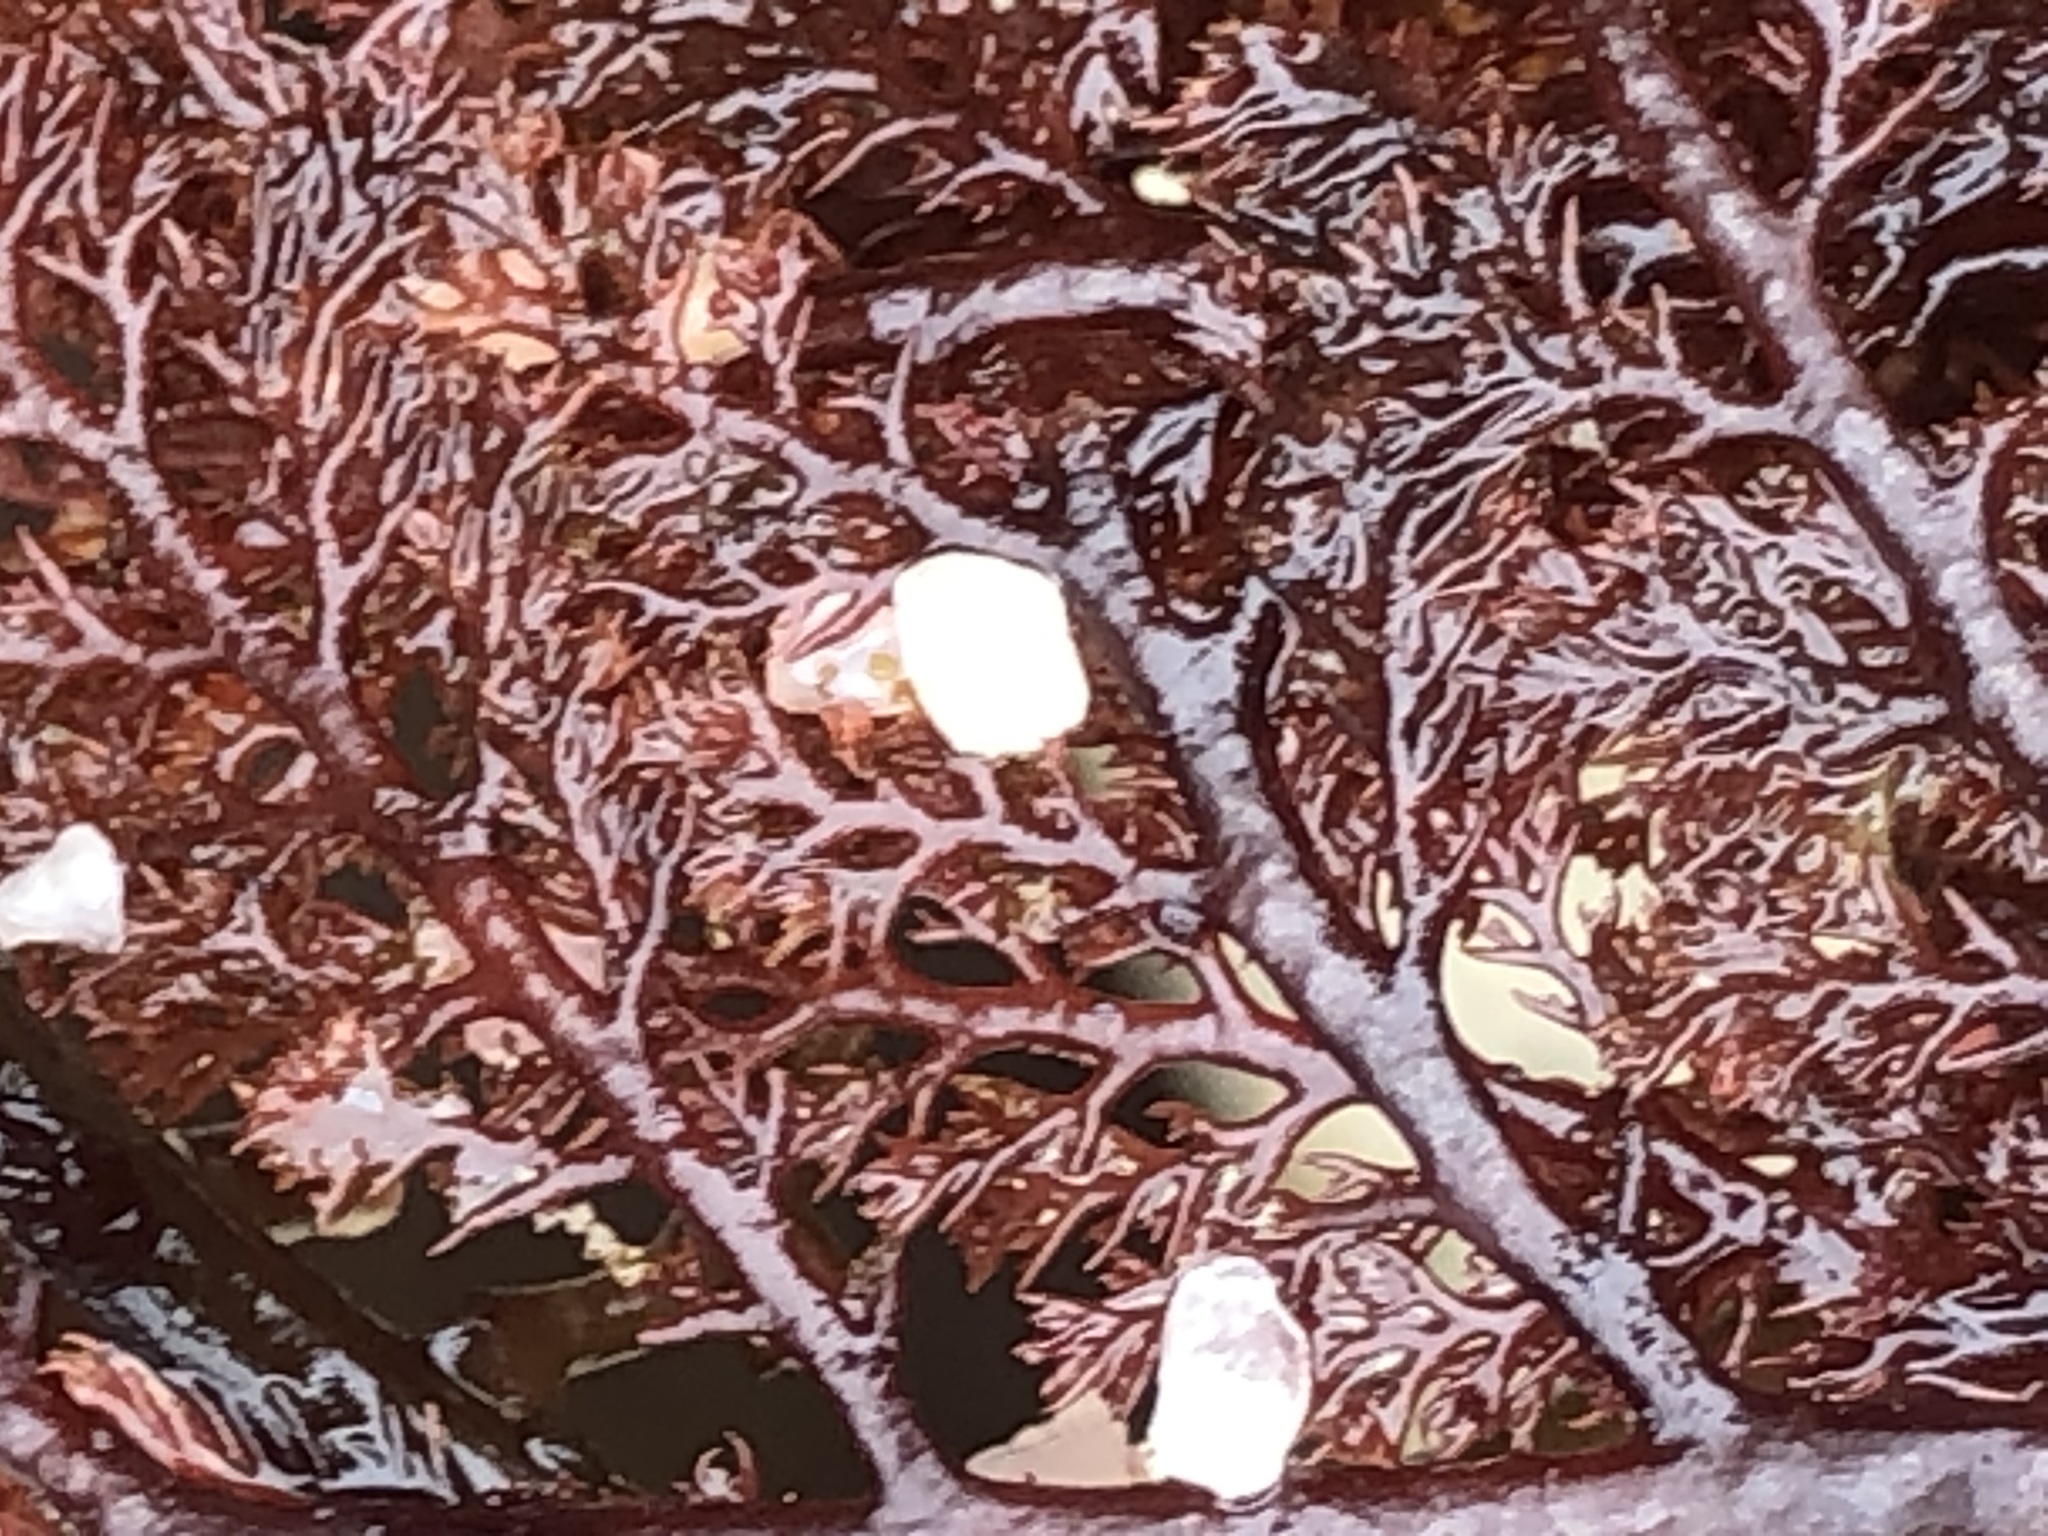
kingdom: Plantae
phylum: Rhodophyta
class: Florideophyceae
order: Ceramiales
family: Ceramiaceae
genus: Microcladia
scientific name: Microcladia coulteri
